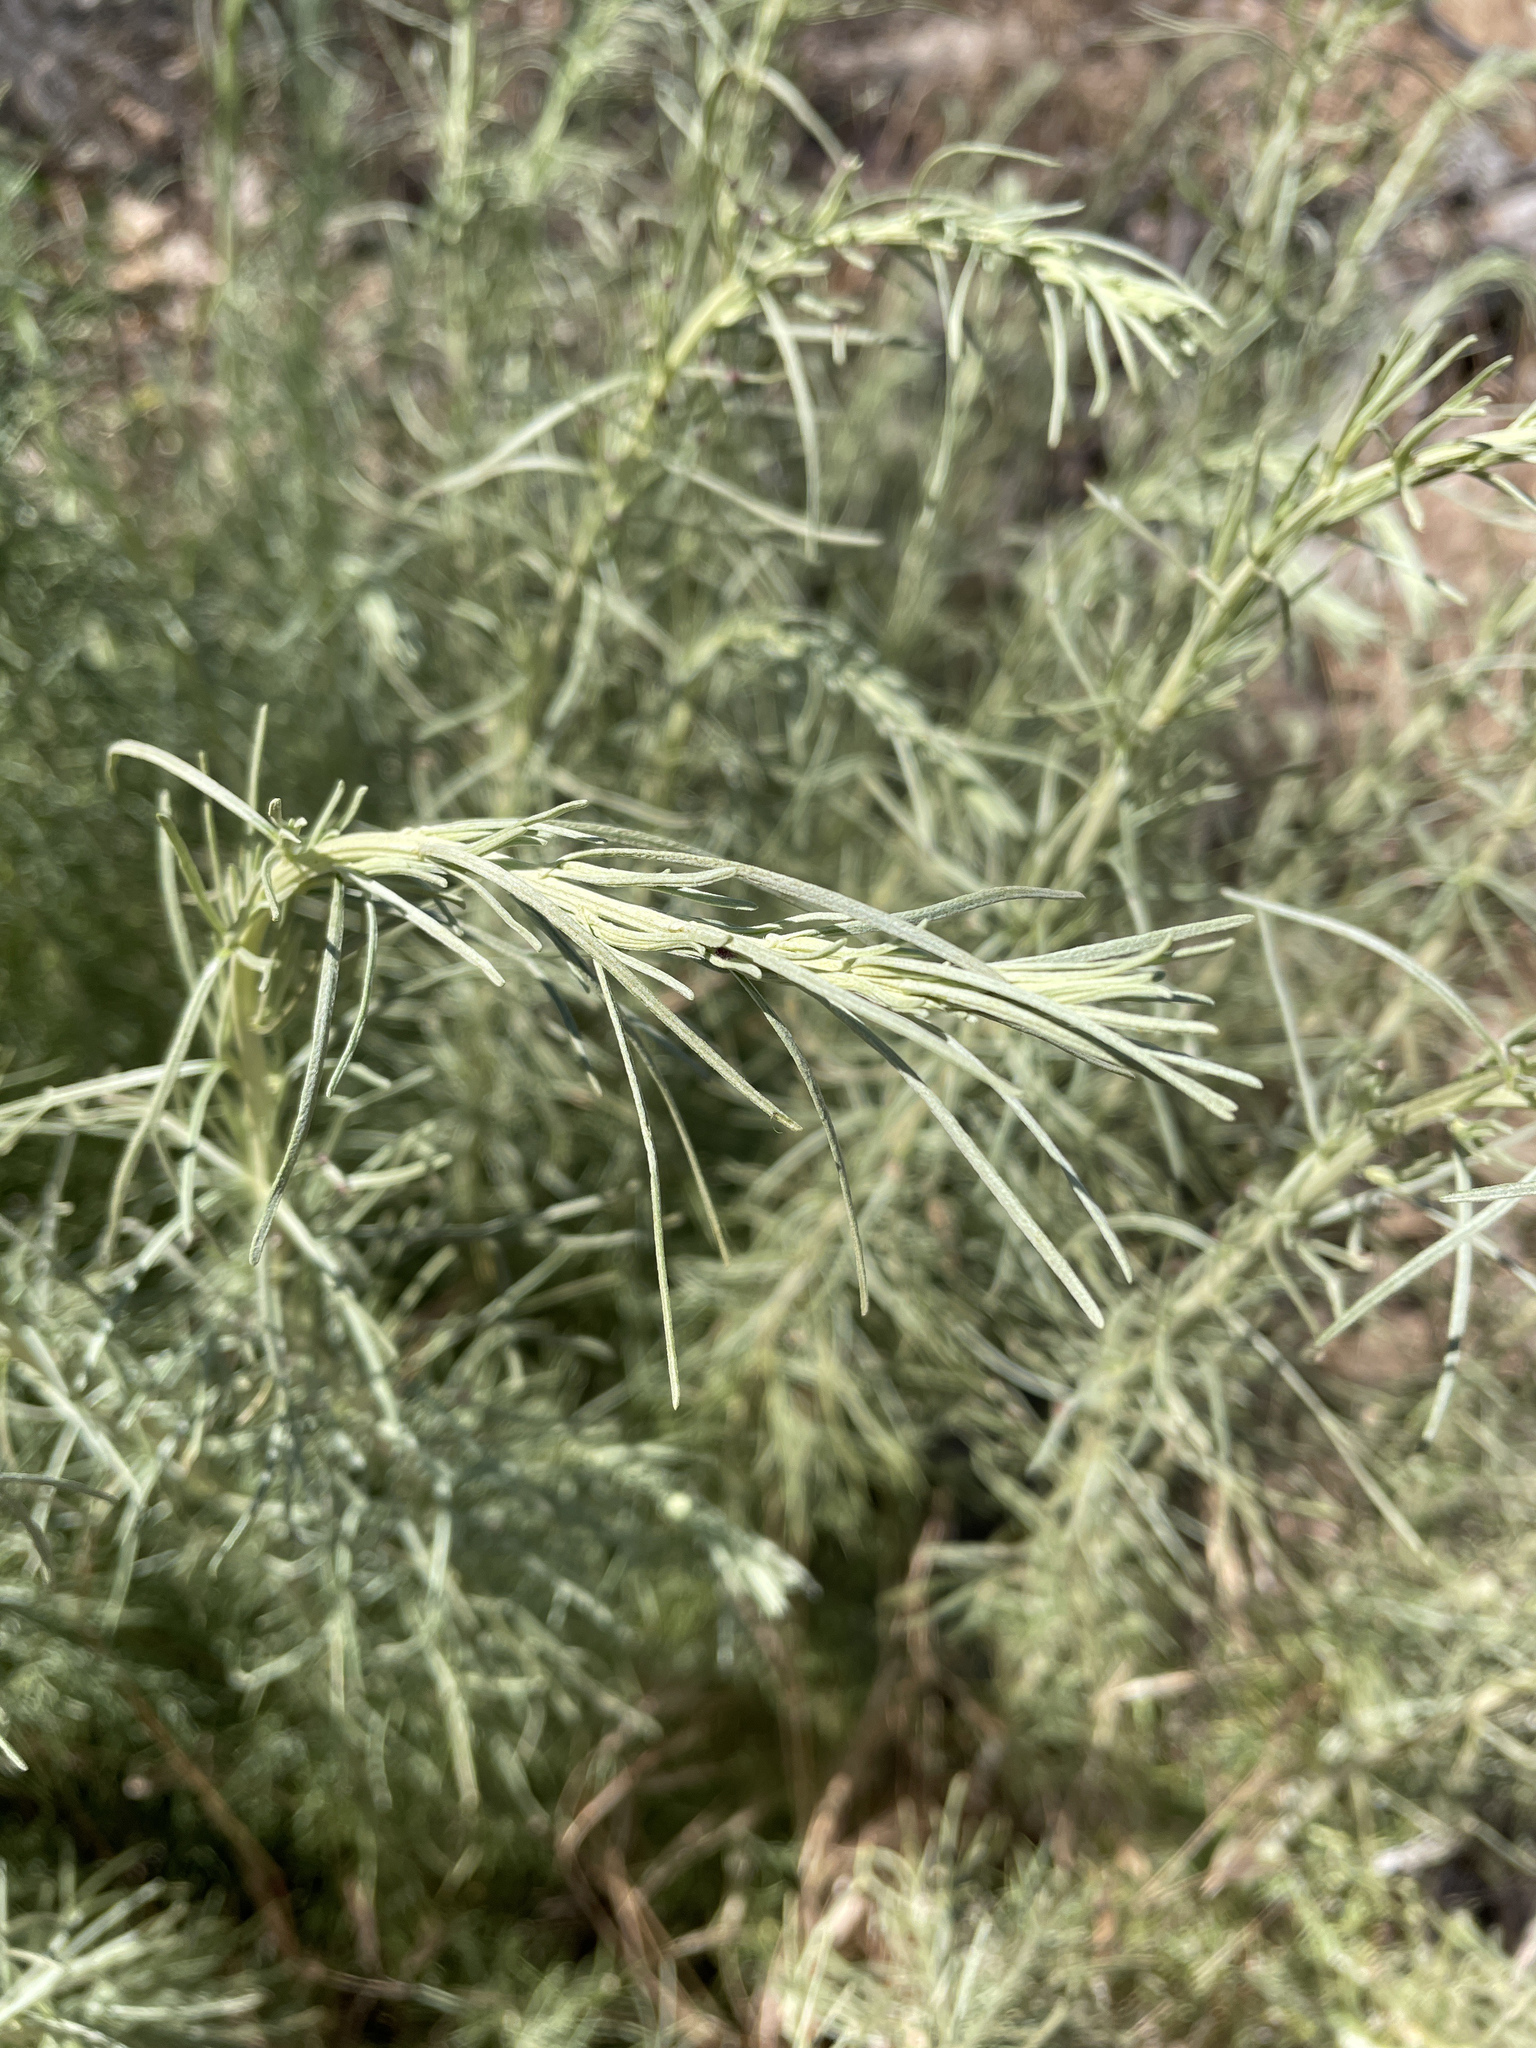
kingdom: Plantae
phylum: Tracheophyta
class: Magnoliopsida
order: Asterales
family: Asteraceae
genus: Artemisia
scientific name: Artemisia californica
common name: California sagebrush
